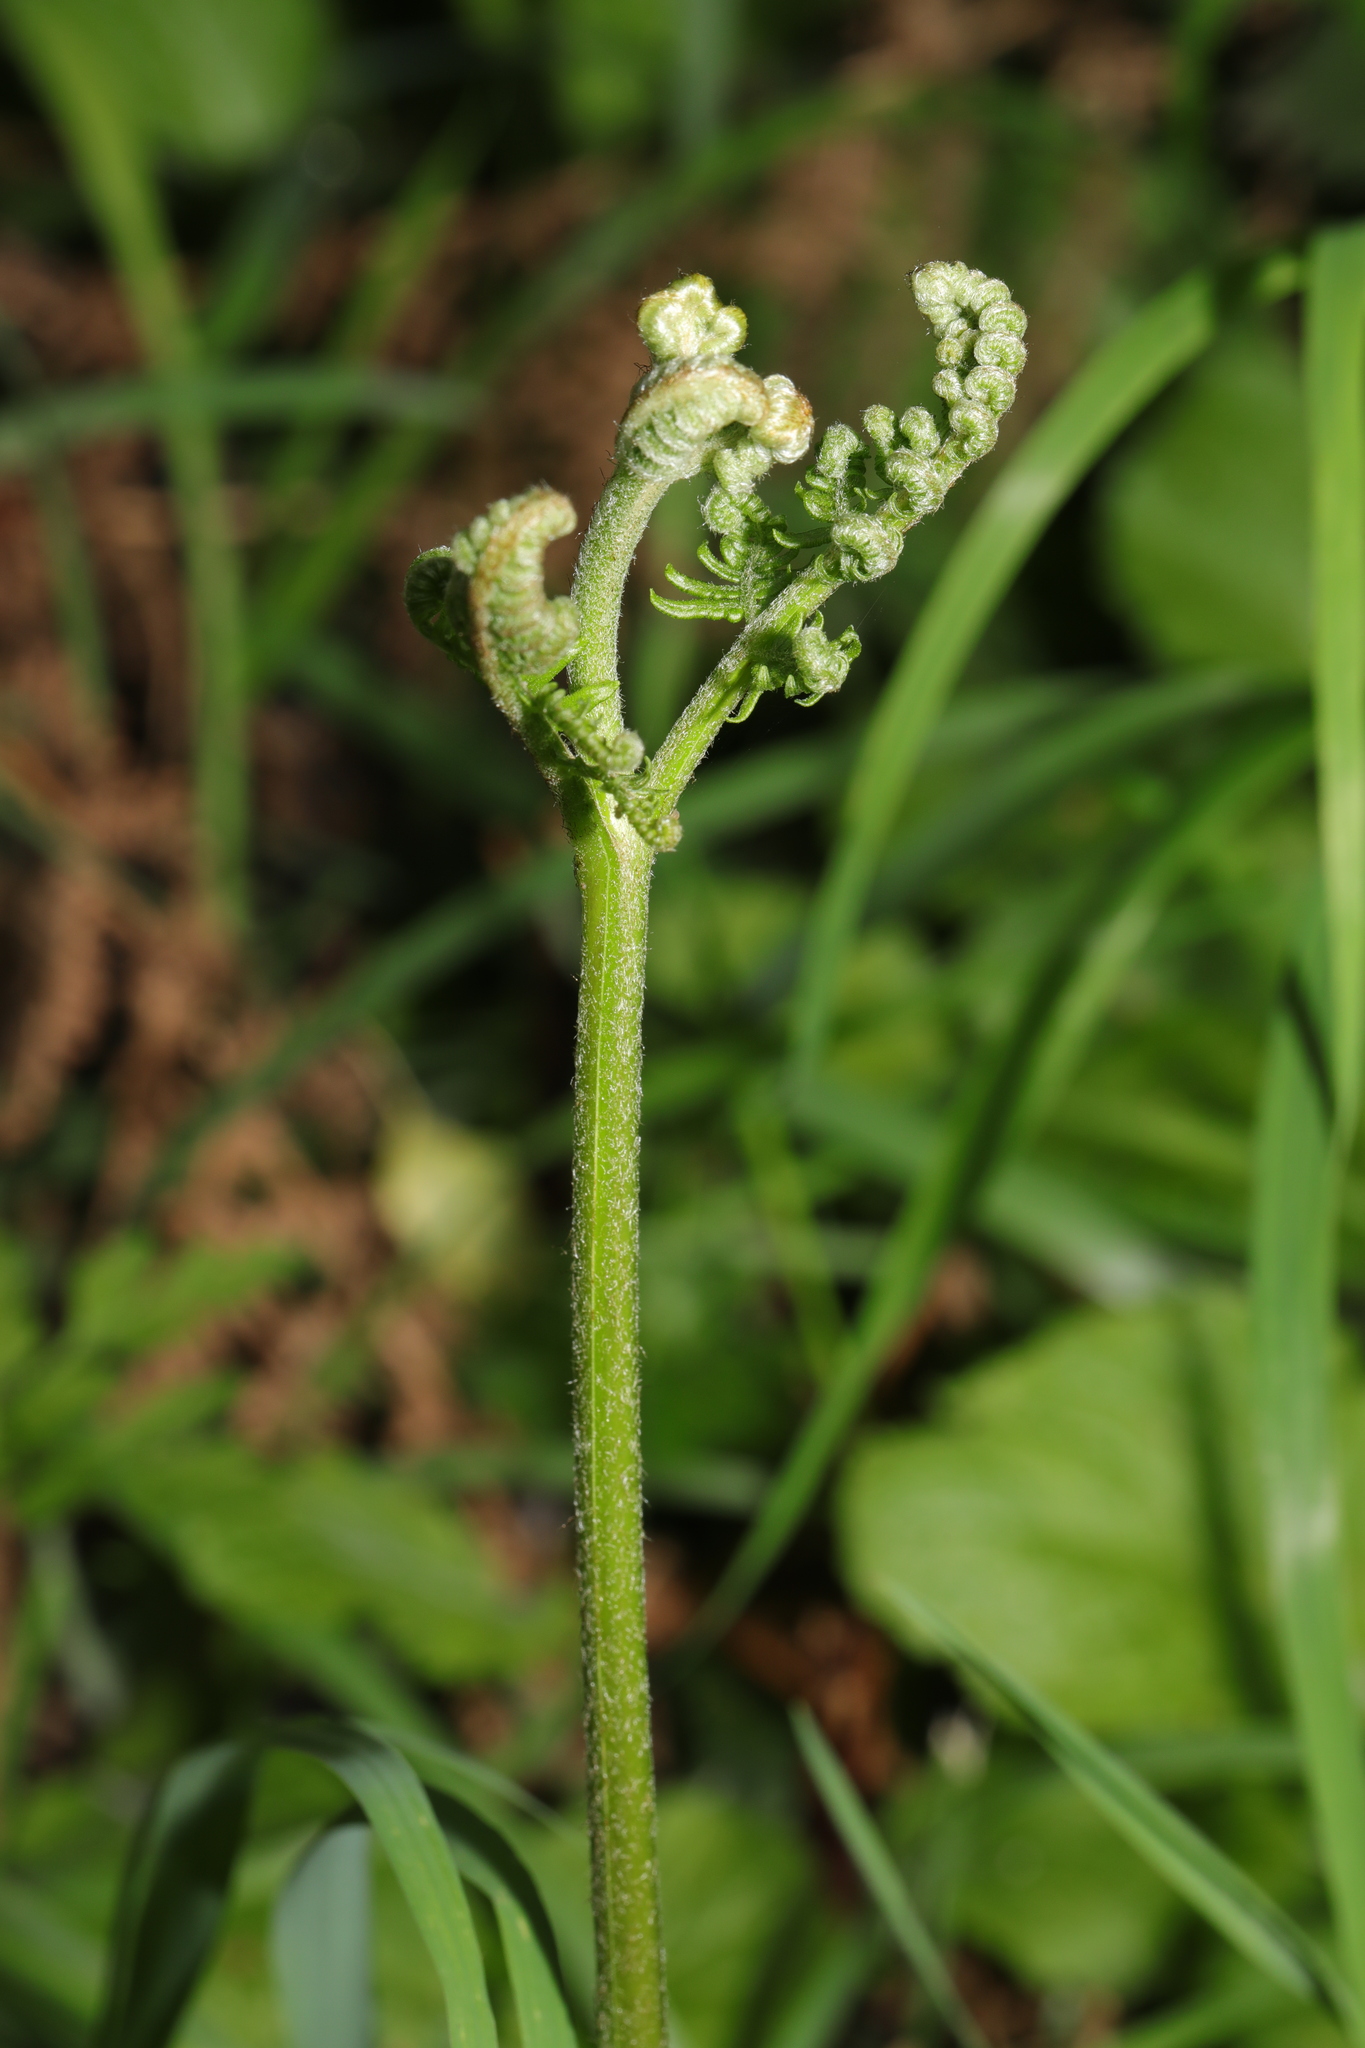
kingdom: Plantae
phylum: Tracheophyta
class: Polypodiopsida
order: Polypodiales
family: Dennstaedtiaceae
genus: Pteridium
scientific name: Pteridium aquilinum
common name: Bracken
